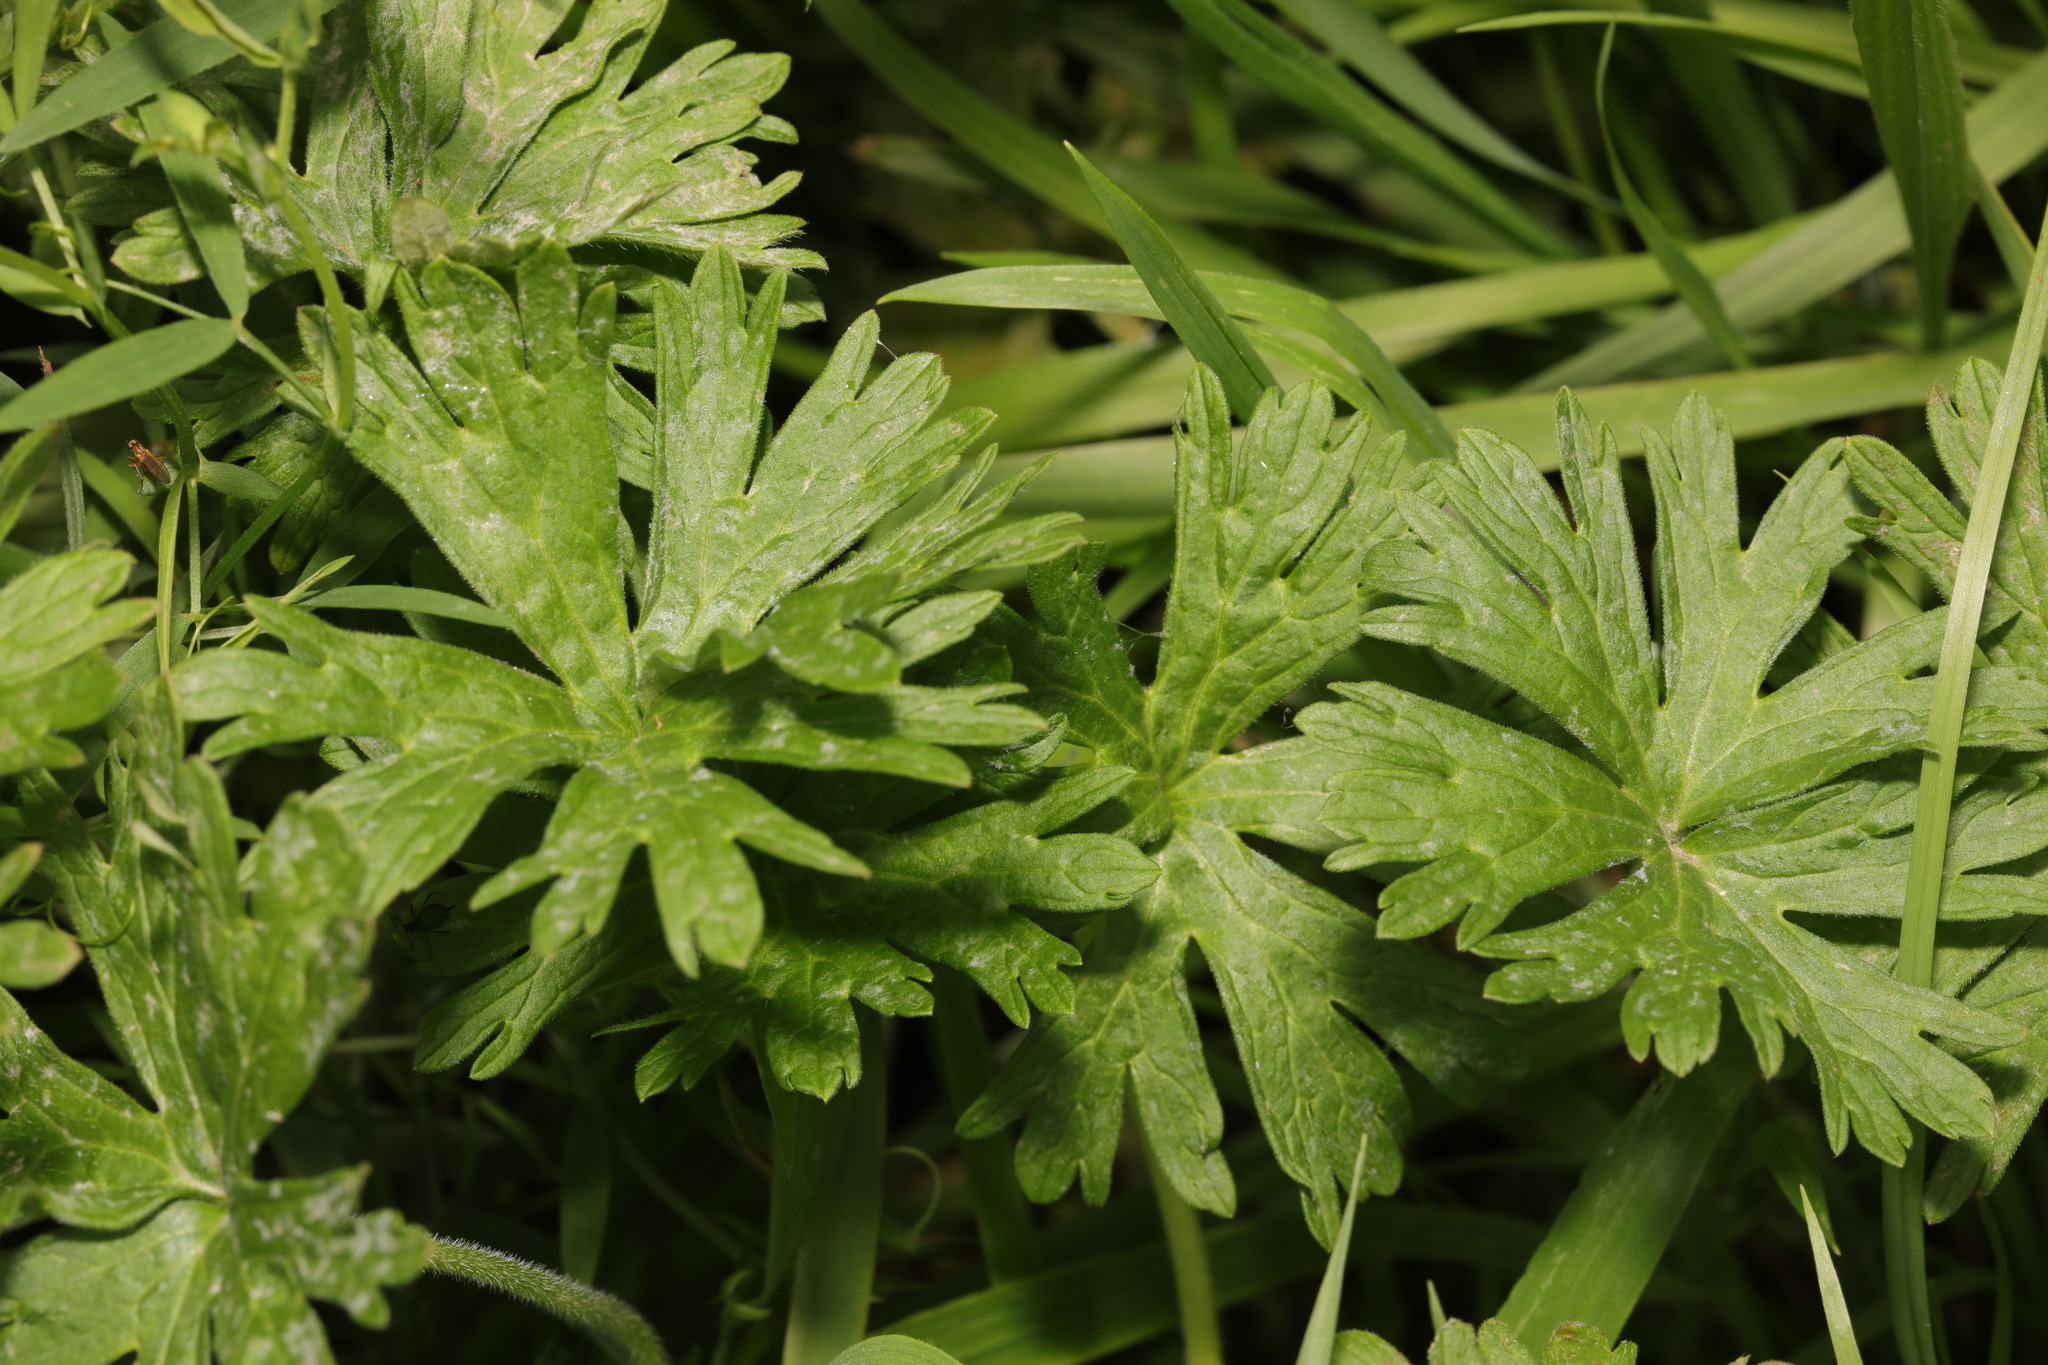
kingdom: Plantae
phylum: Tracheophyta
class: Magnoliopsida
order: Geraniales
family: Geraniaceae
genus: Geranium
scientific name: Geranium pratense
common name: Meadow crane's-bill
